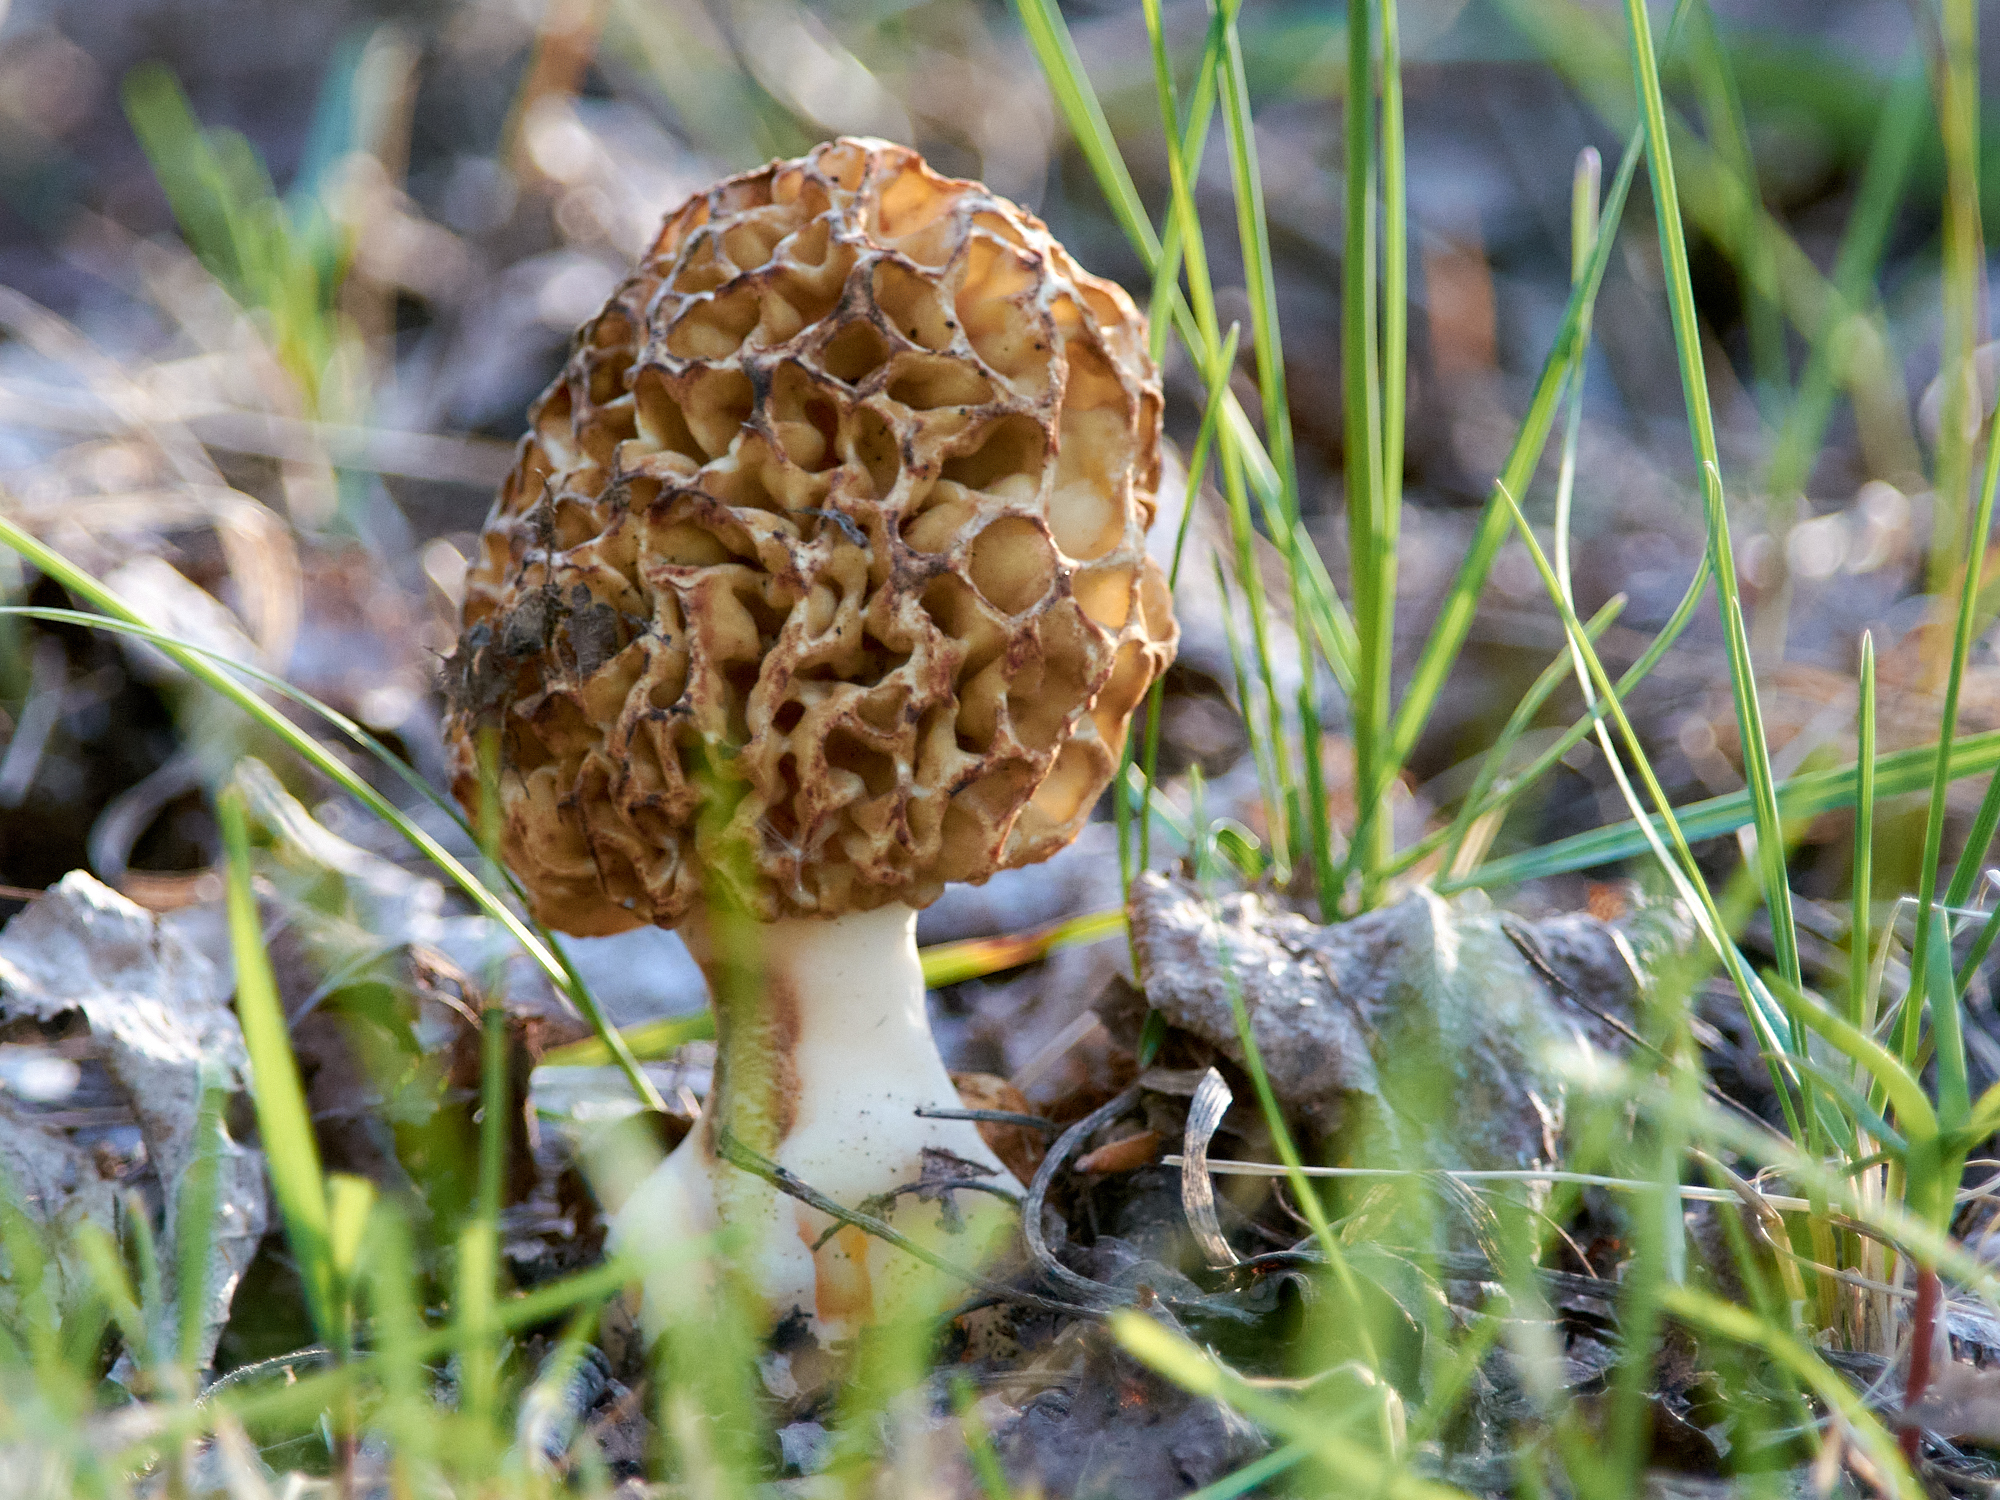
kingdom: Fungi
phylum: Ascomycota
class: Pezizomycetes
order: Pezizales
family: Morchellaceae
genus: Morchella
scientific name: Morchella esculenta
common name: Morel
